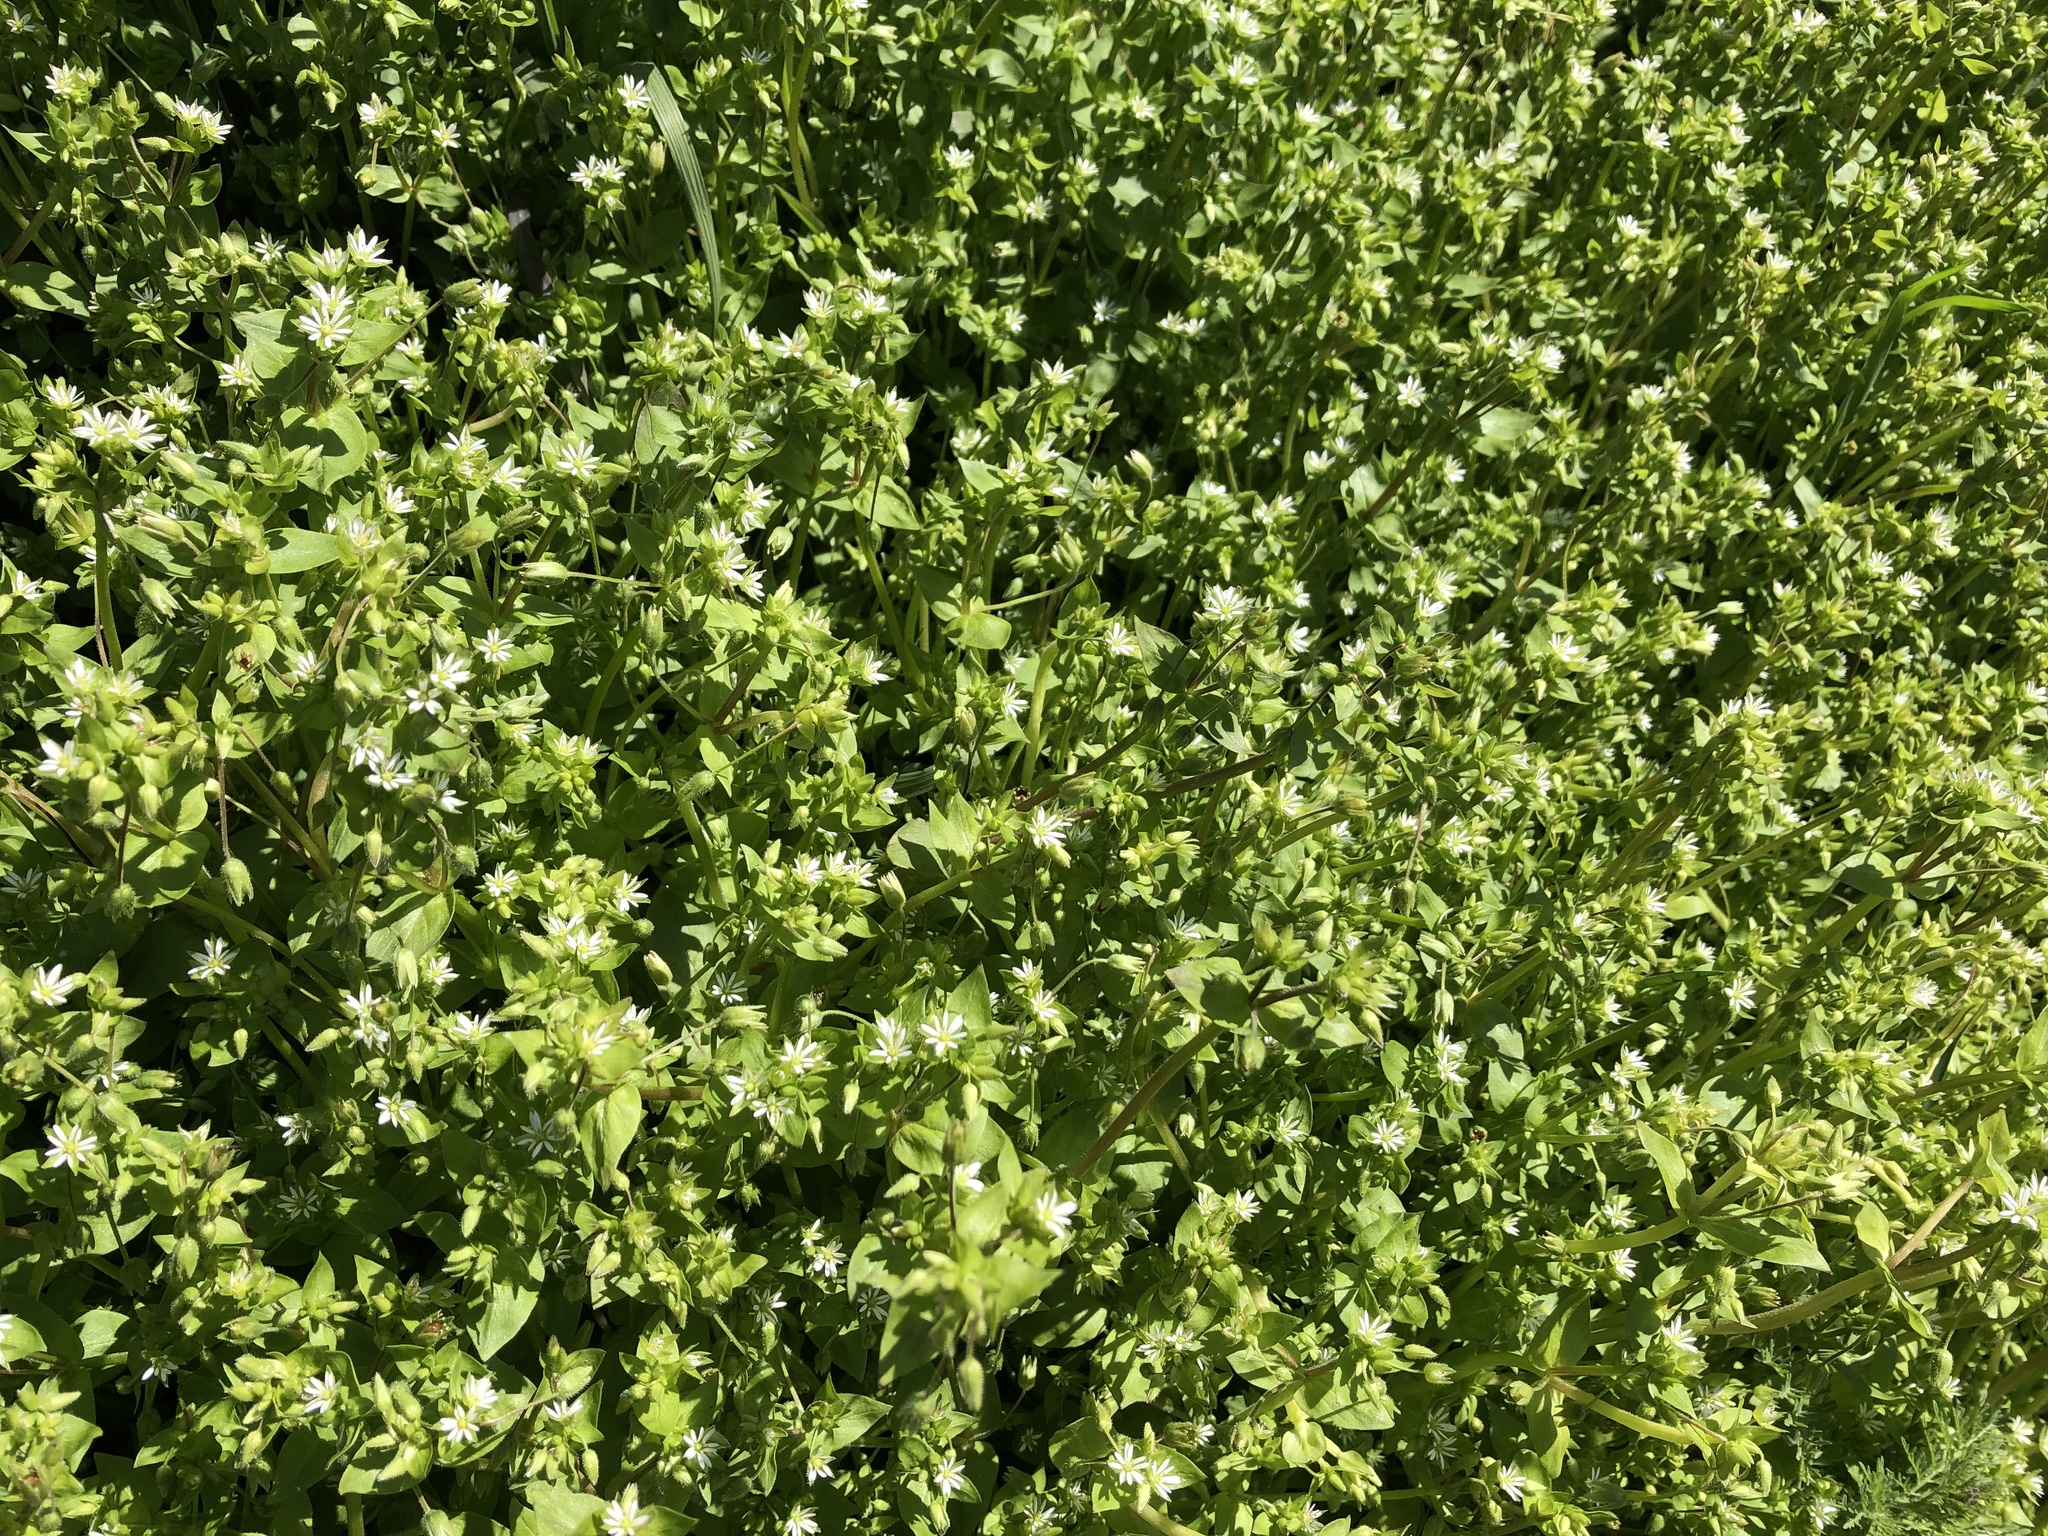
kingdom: Plantae
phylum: Tracheophyta
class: Magnoliopsida
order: Caryophyllales
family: Caryophyllaceae
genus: Stellaria
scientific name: Stellaria media
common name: Common chickweed
